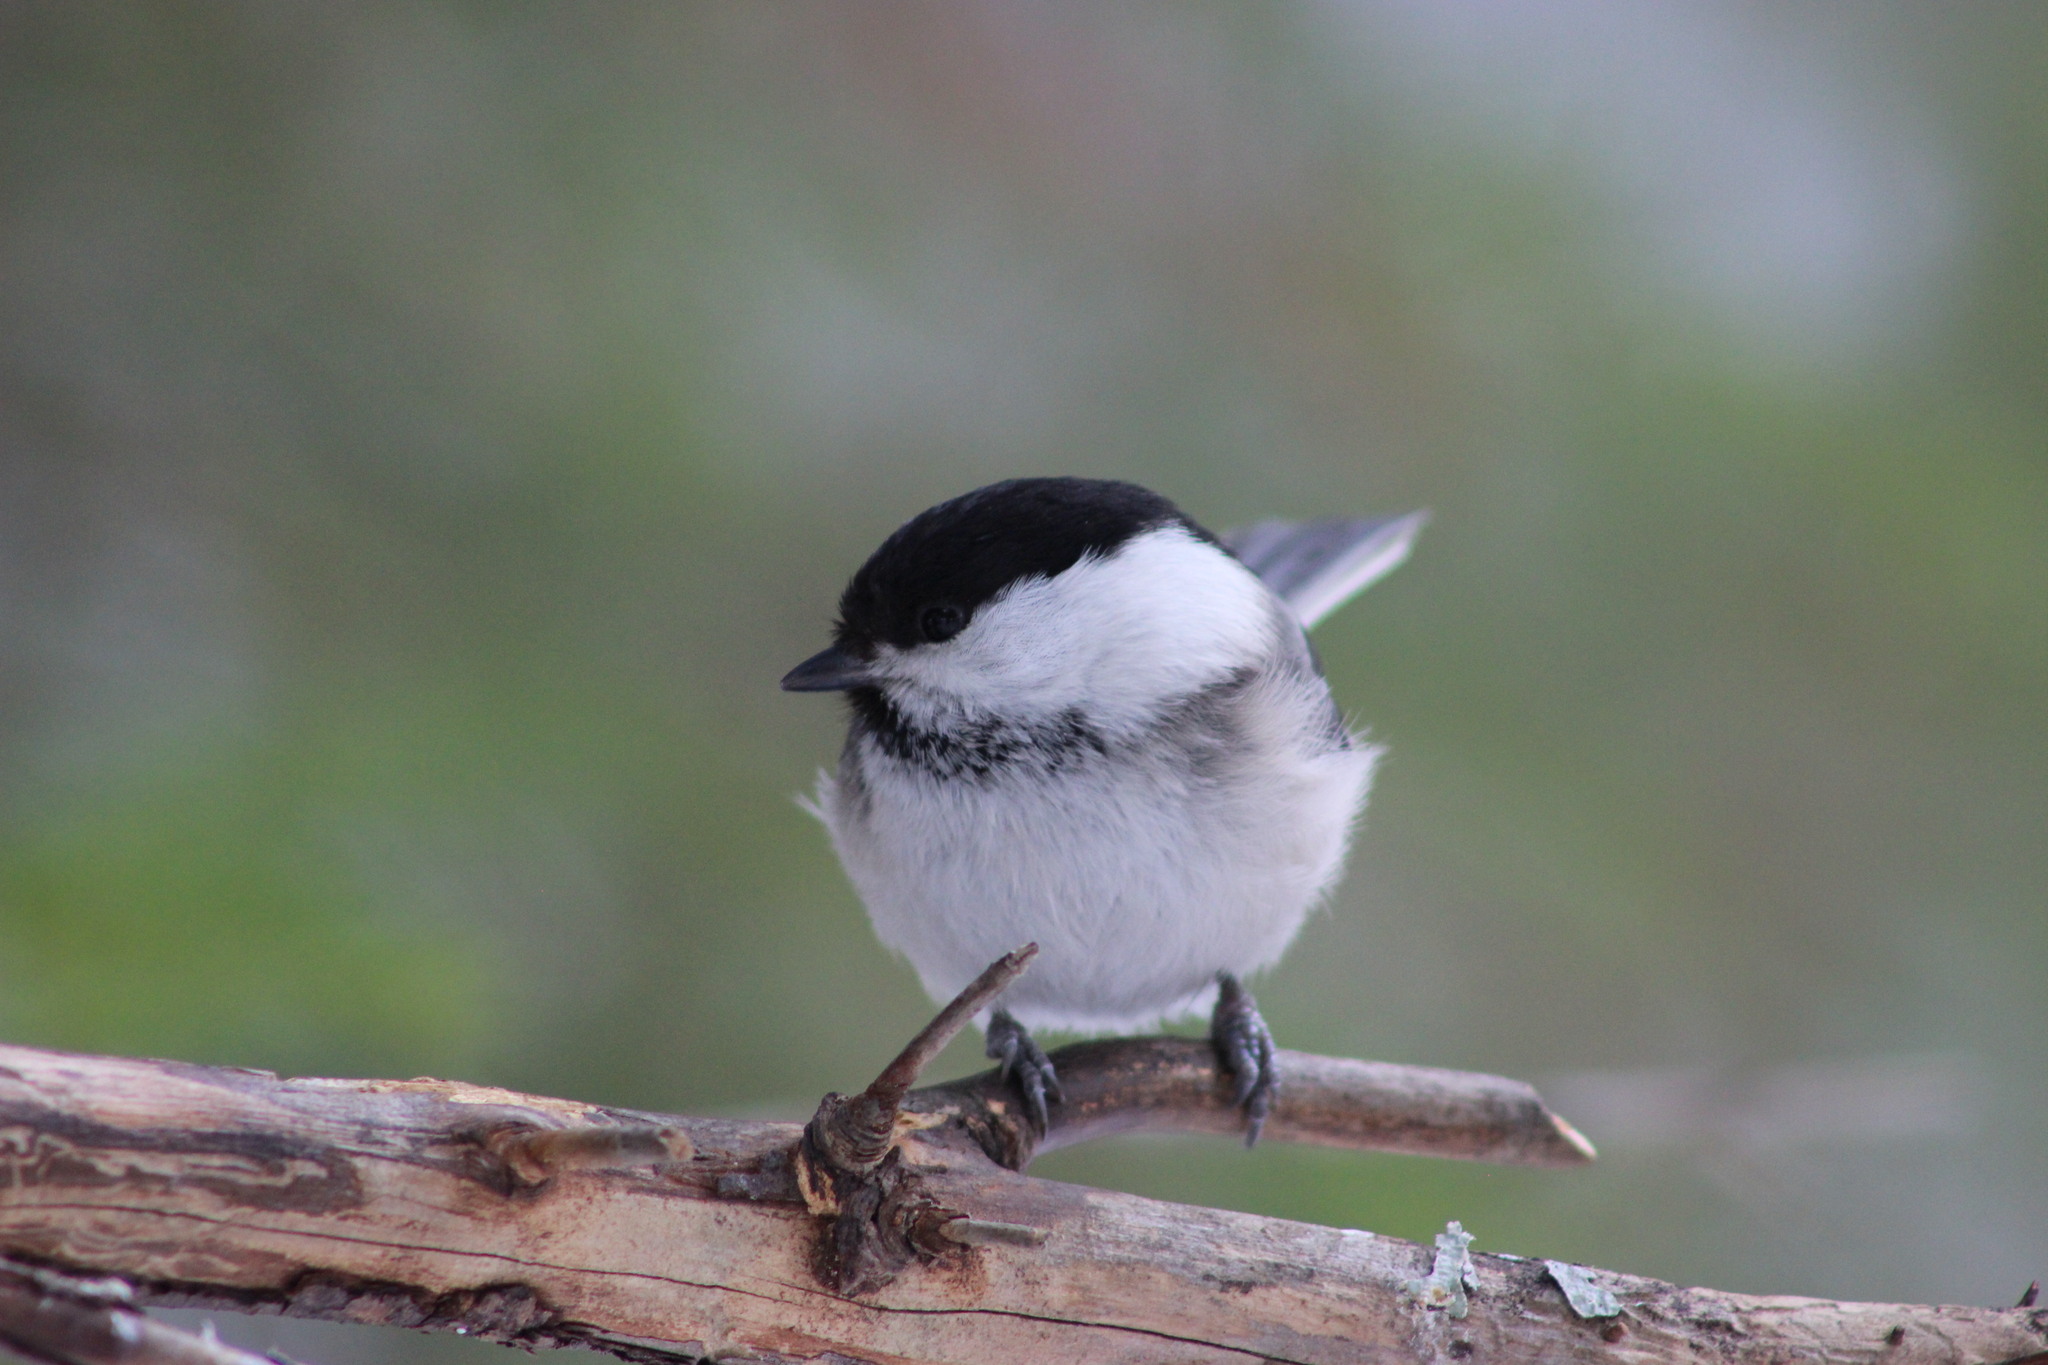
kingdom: Animalia
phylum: Chordata
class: Aves
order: Passeriformes
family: Paridae
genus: Poecile
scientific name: Poecile montanus
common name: Willow tit
